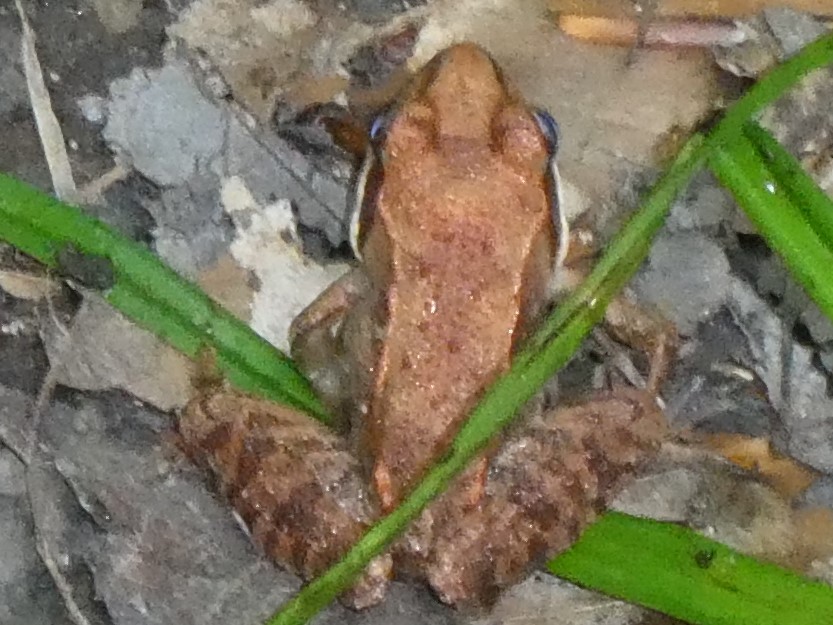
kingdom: Animalia
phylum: Chordata
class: Amphibia
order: Anura
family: Ranidae
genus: Lithobates
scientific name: Lithobates sylvaticus
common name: Wood frog
